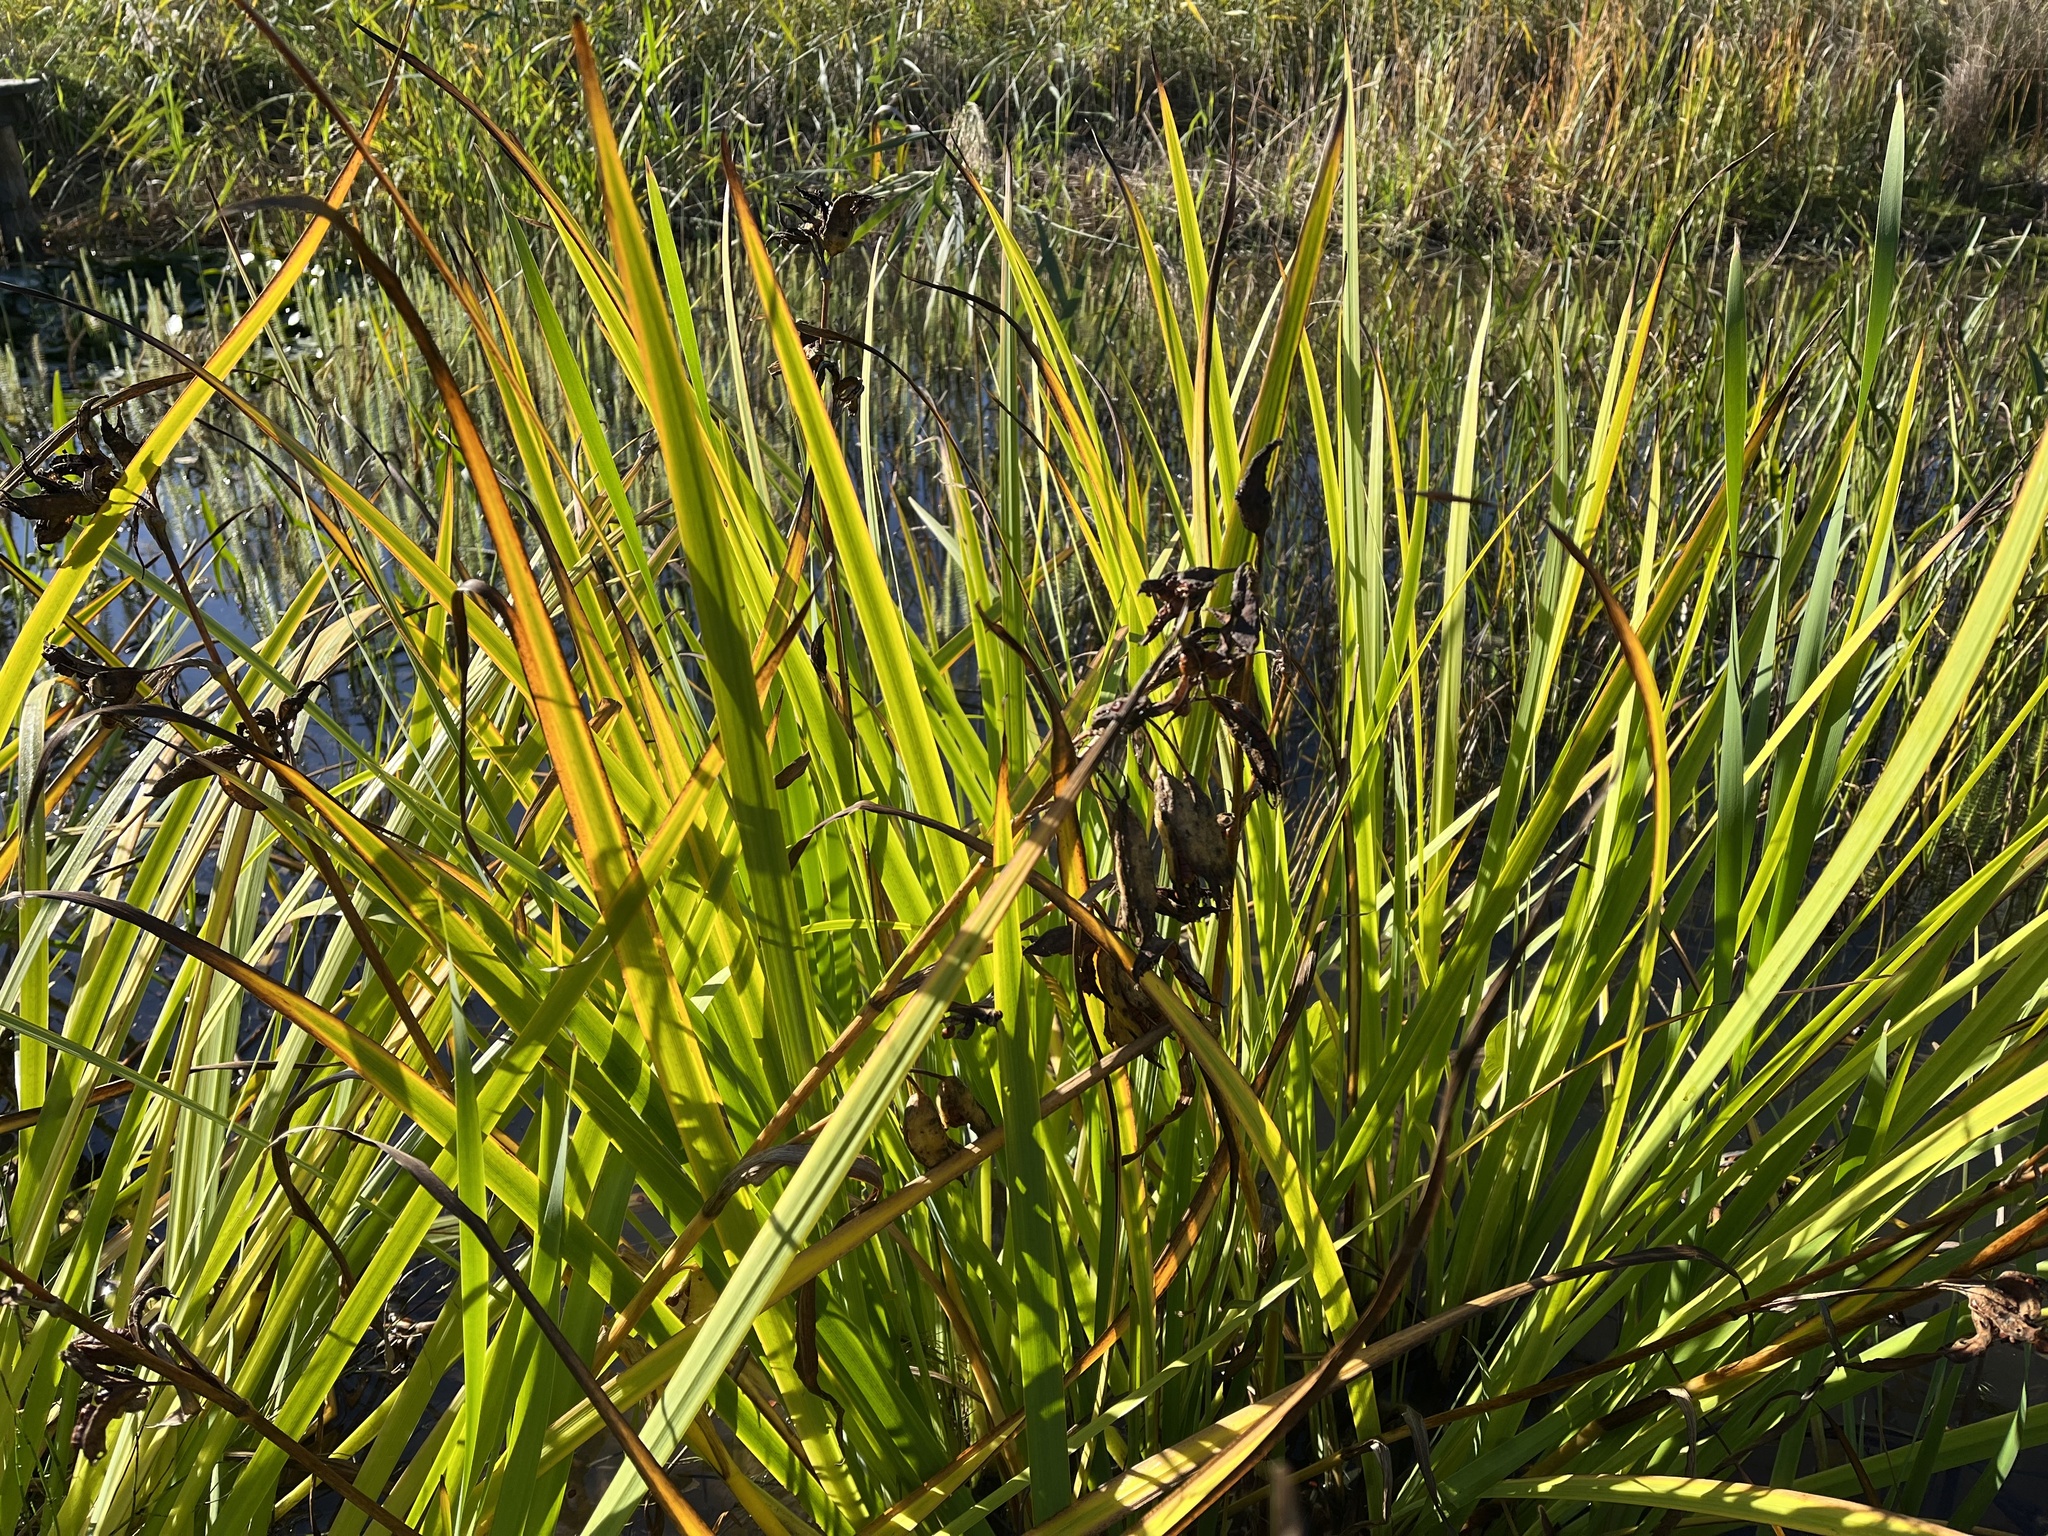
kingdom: Plantae
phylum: Tracheophyta
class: Liliopsida
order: Asparagales
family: Iridaceae
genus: Iris
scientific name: Iris pseudacorus
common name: Yellow flag
